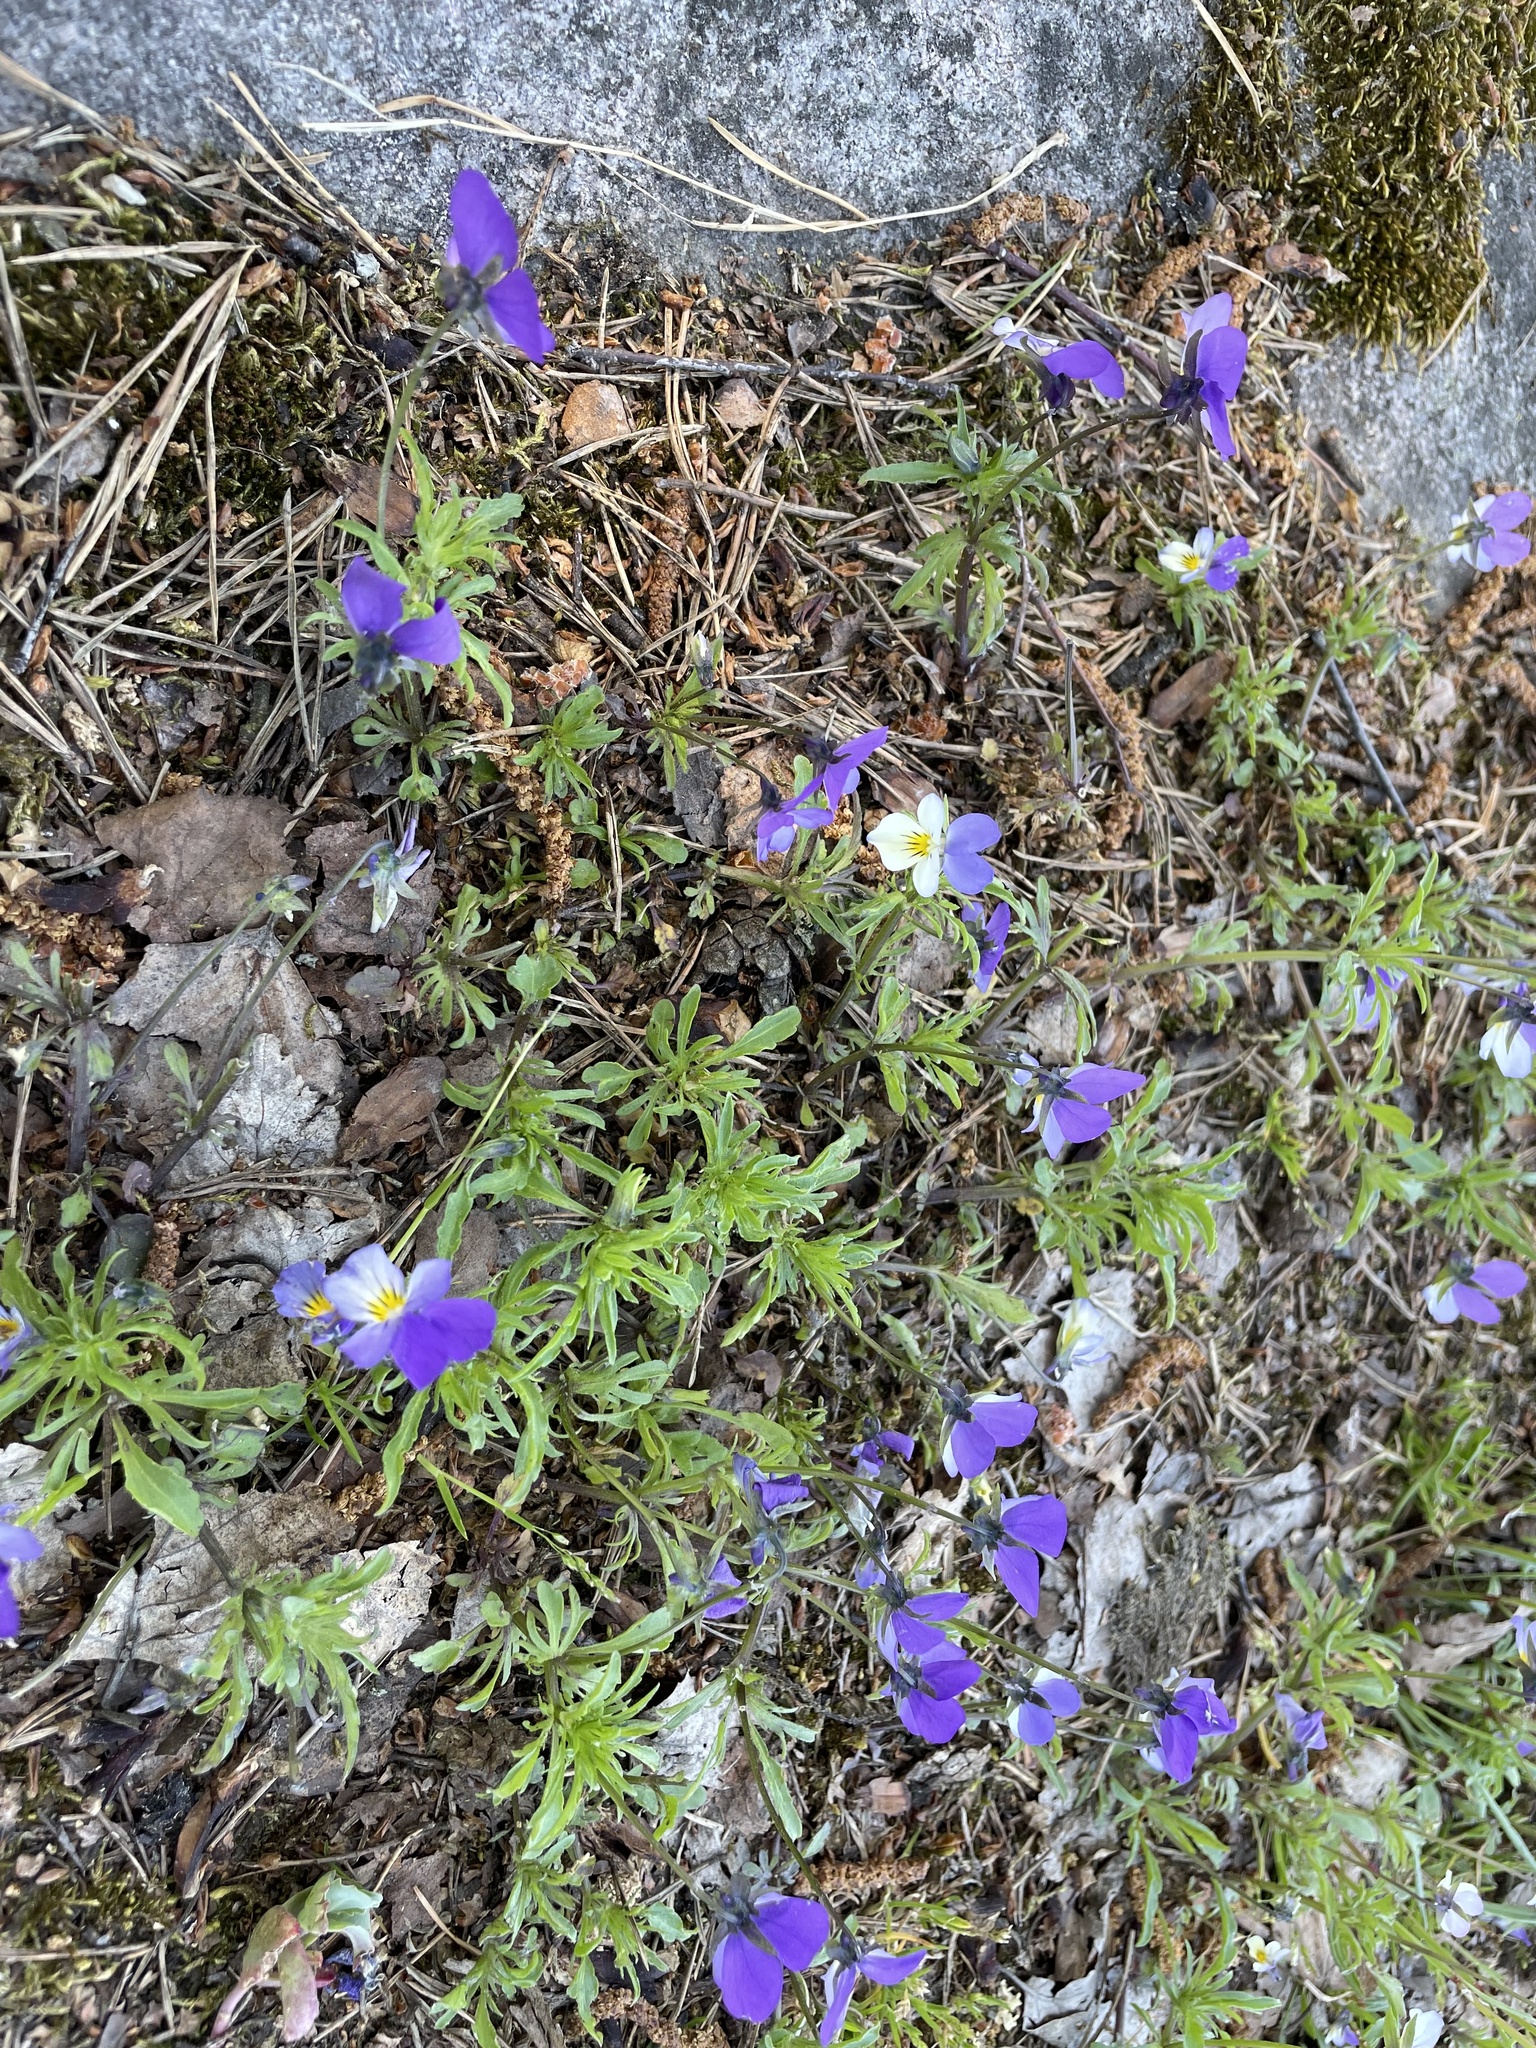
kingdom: Plantae
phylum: Tracheophyta
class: Magnoliopsida
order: Malpighiales
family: Violaceae
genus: Viola
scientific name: Viola tricolor
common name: Pansy
